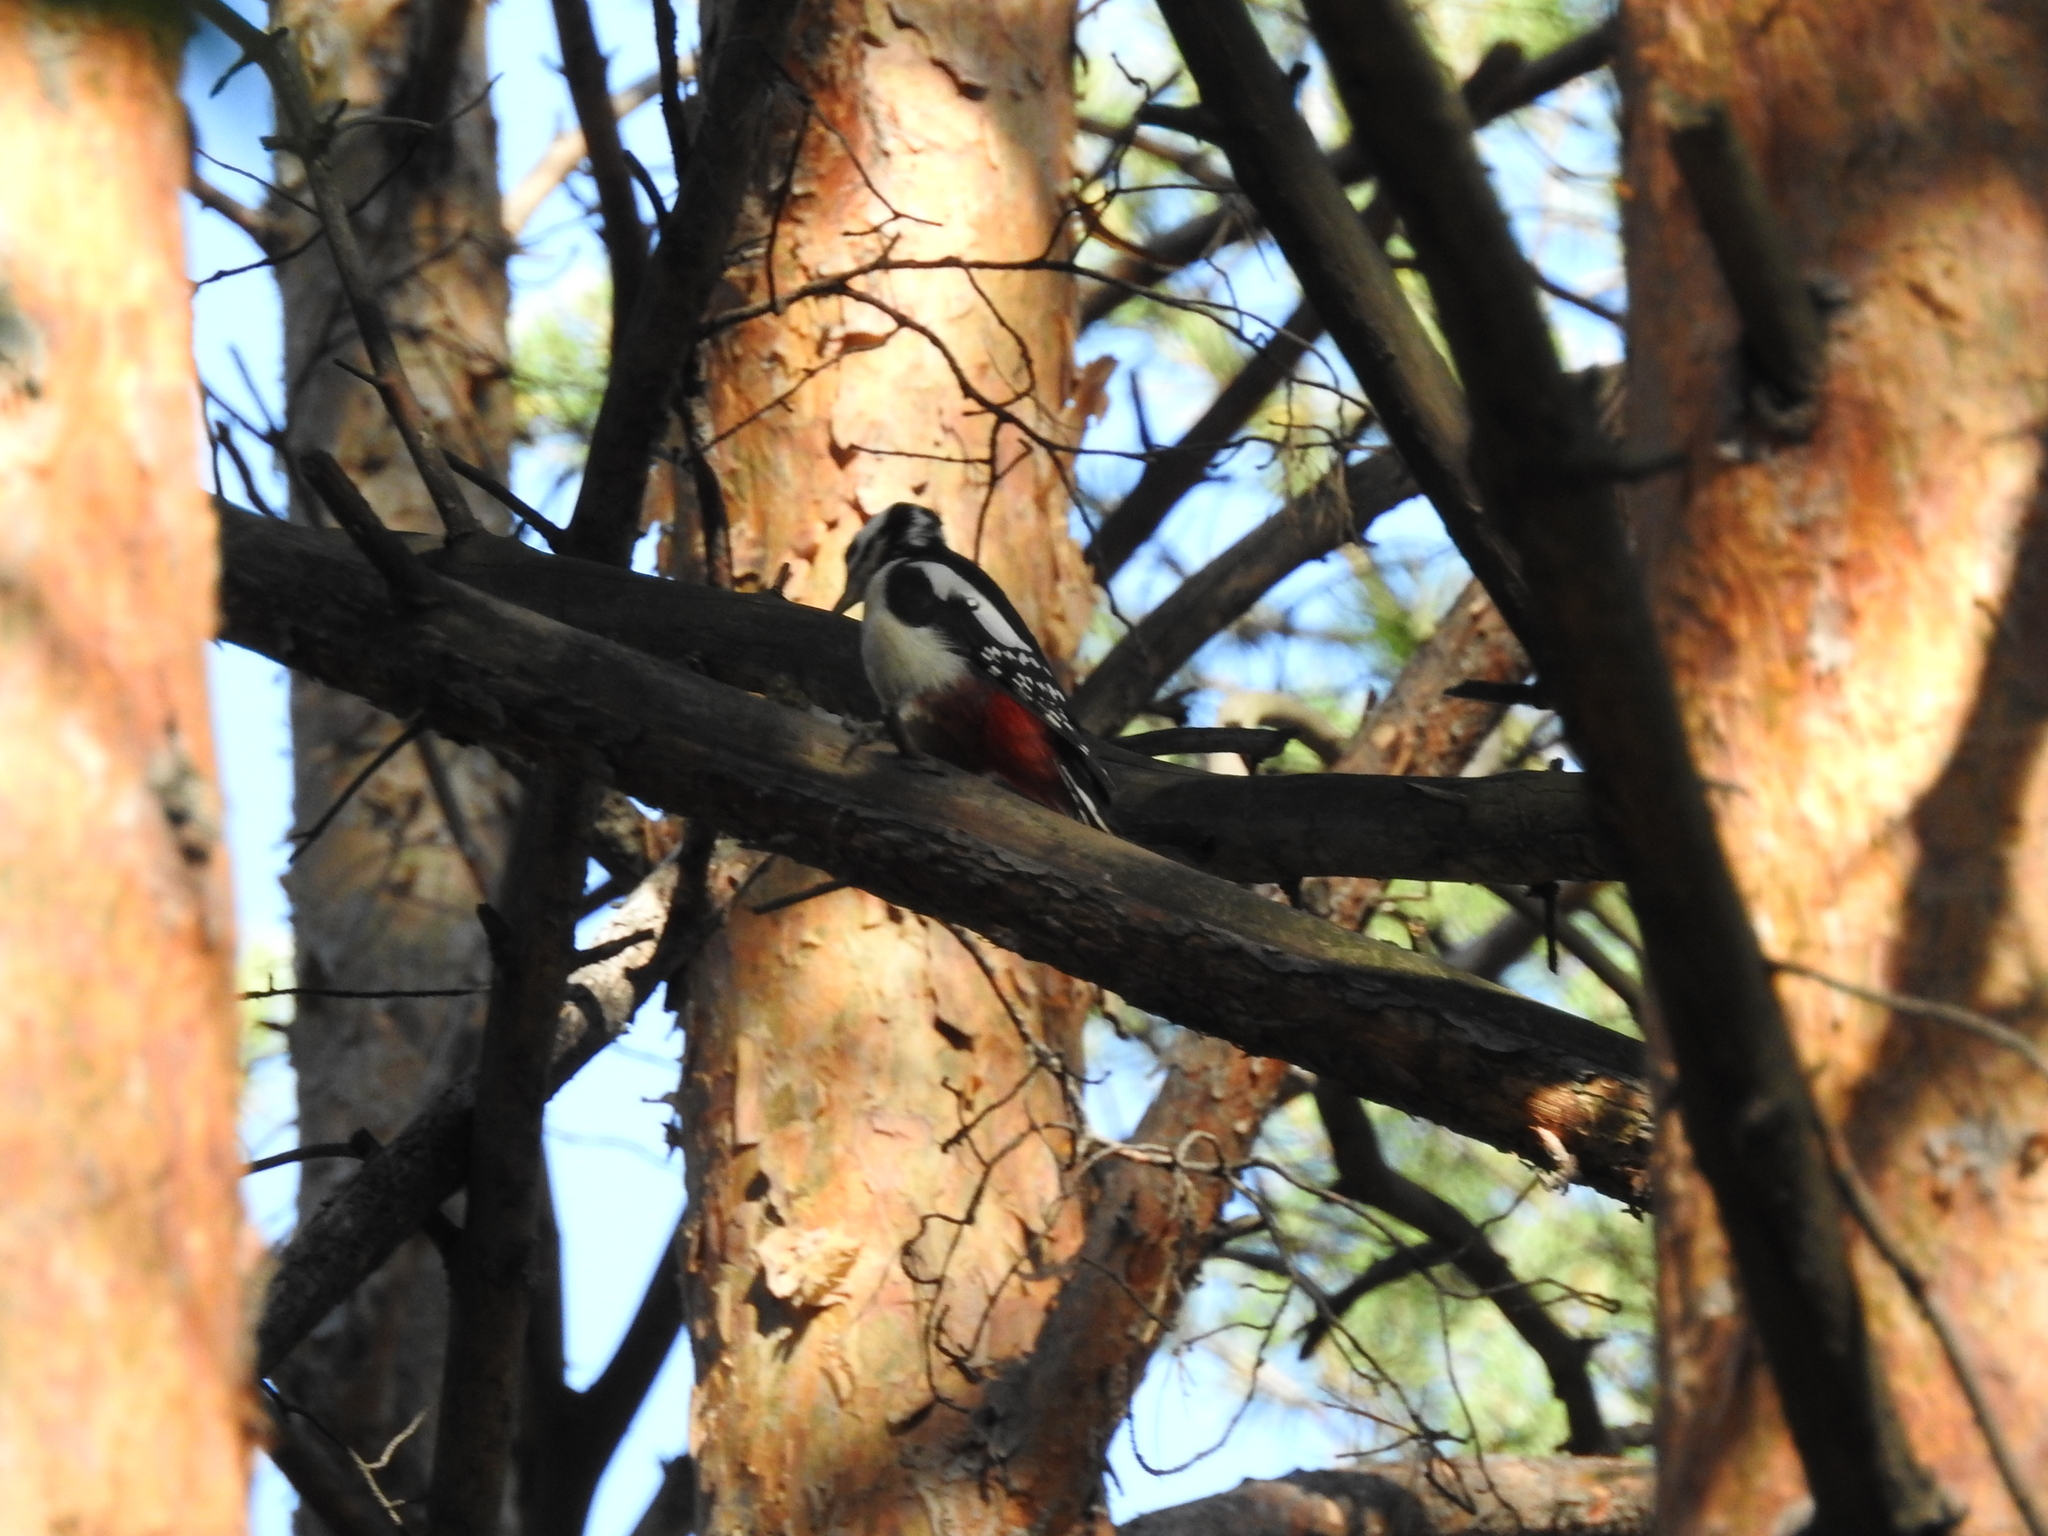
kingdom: Animalia
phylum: Chordata
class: Aves
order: Piciformes
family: Picidae
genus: Dendrocopos
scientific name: Dendrocopos major
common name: Great spotted woodpecker
